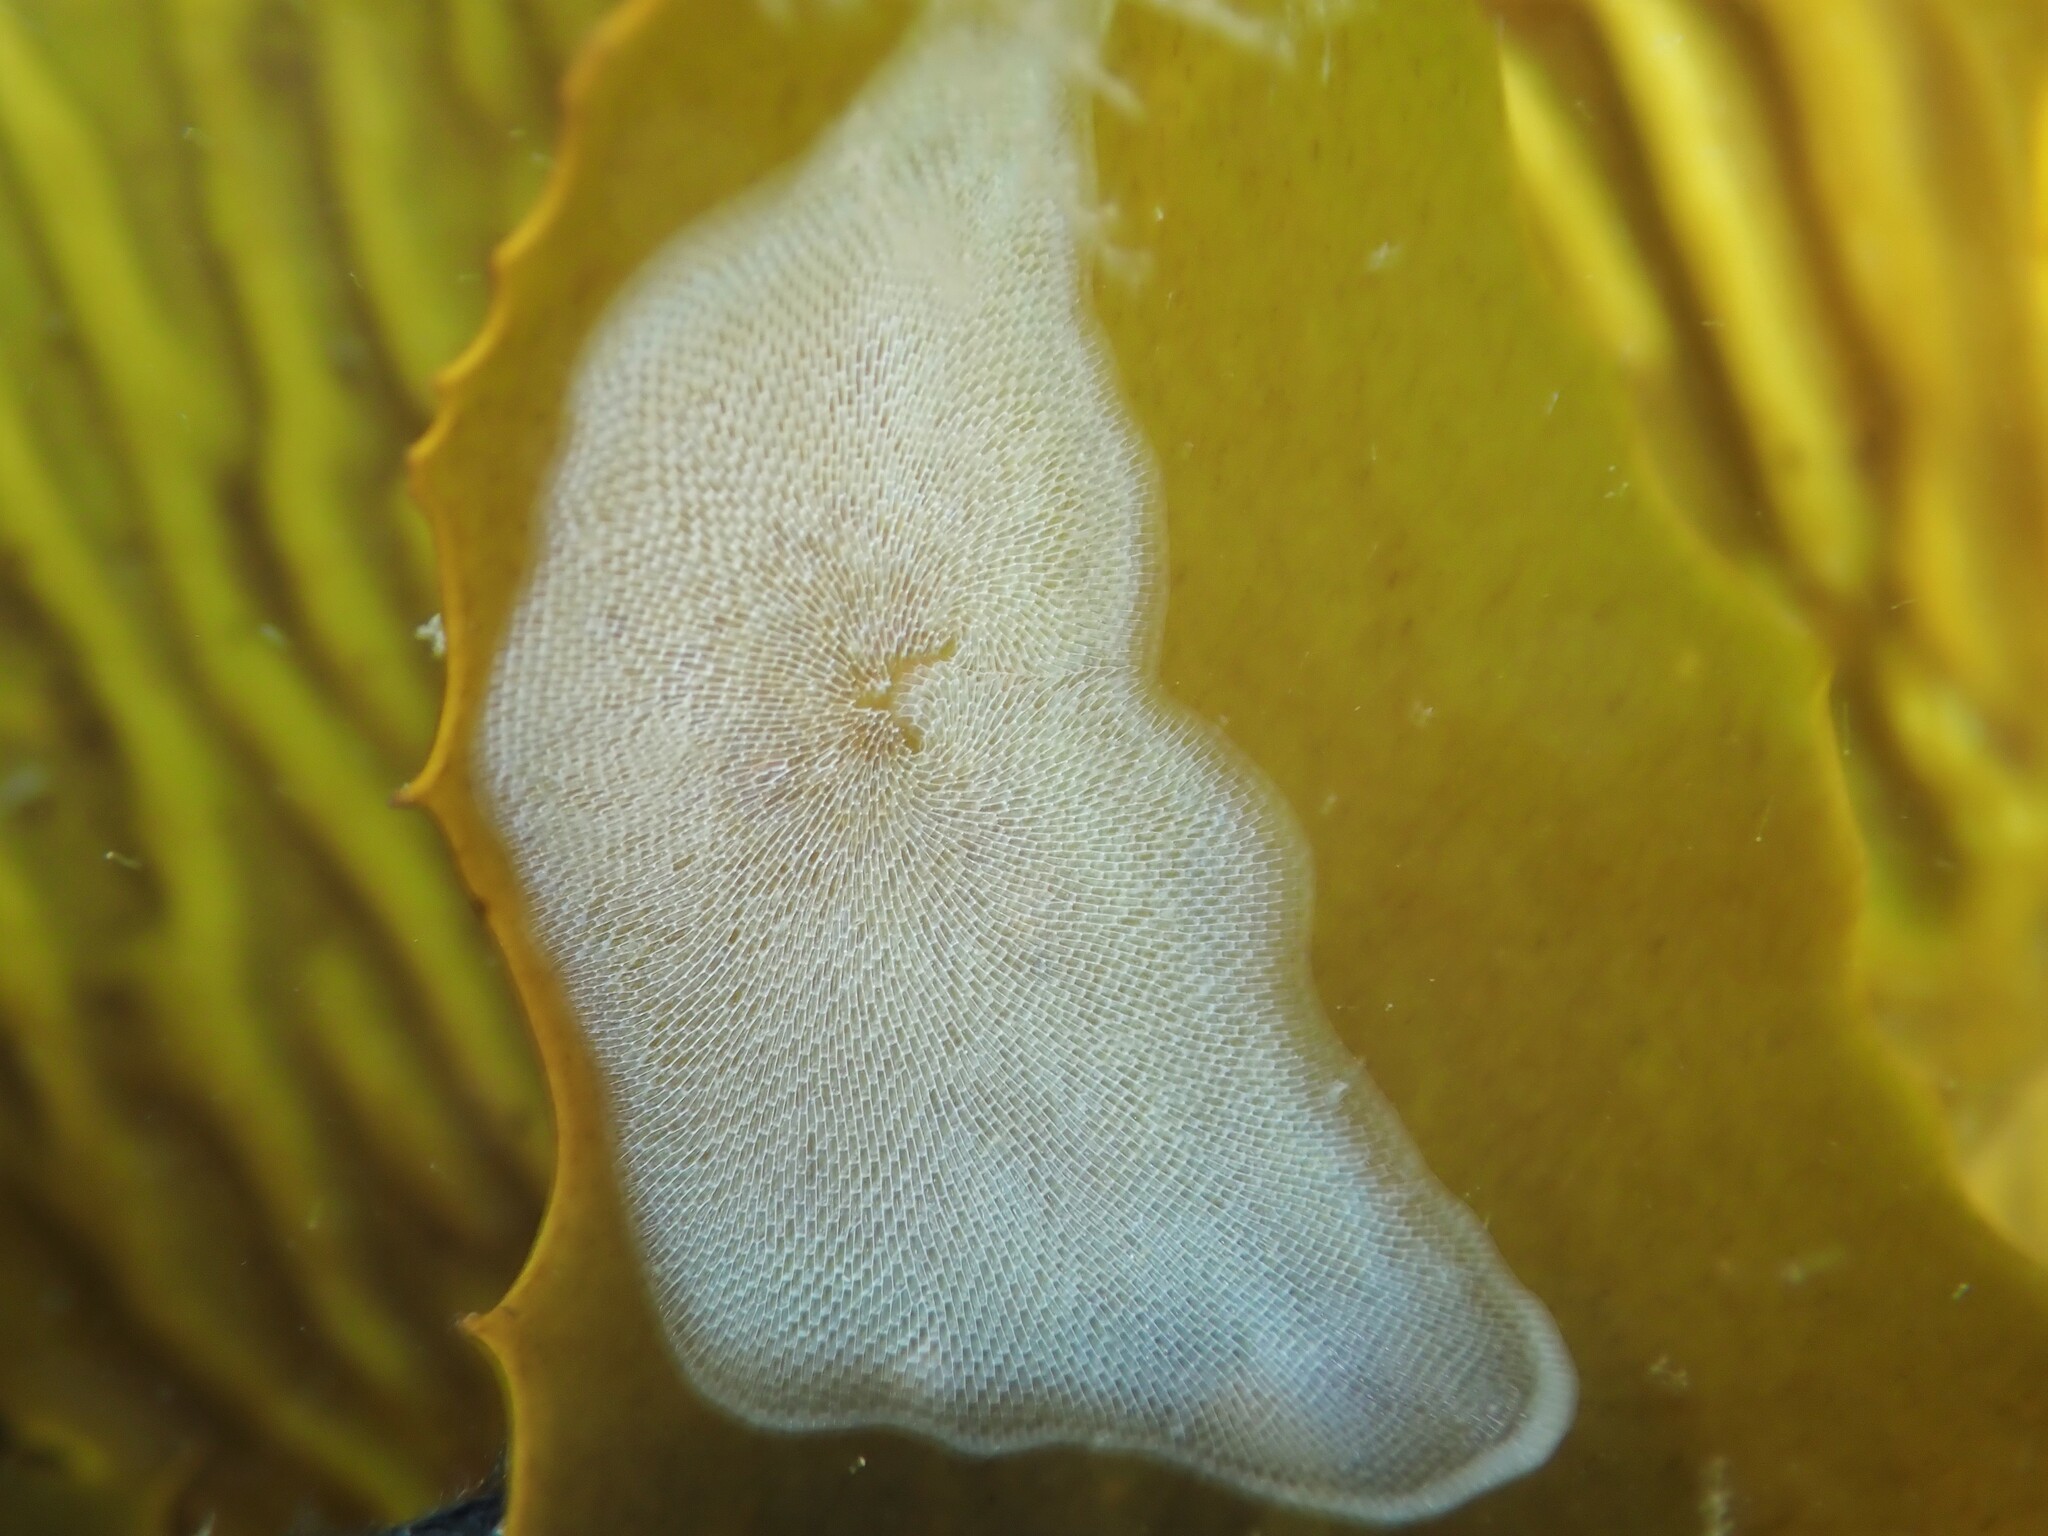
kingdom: Animalia
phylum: Bryozoa
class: Gymnolaemata
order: Cheilostomatida
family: Membraniporidae
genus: Membranipora
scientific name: Membranipora membranacea
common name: Sea mat
